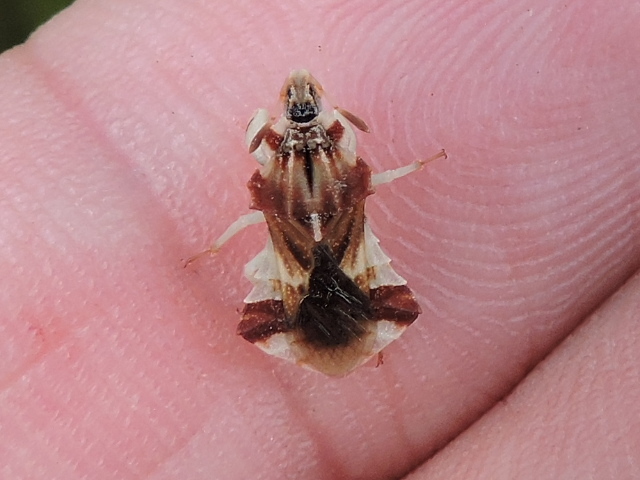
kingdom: Animalia
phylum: Arthropoda
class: Insecta
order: Hemiptera
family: Reduviidae
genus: Phymata
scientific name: Phymata fasciata
